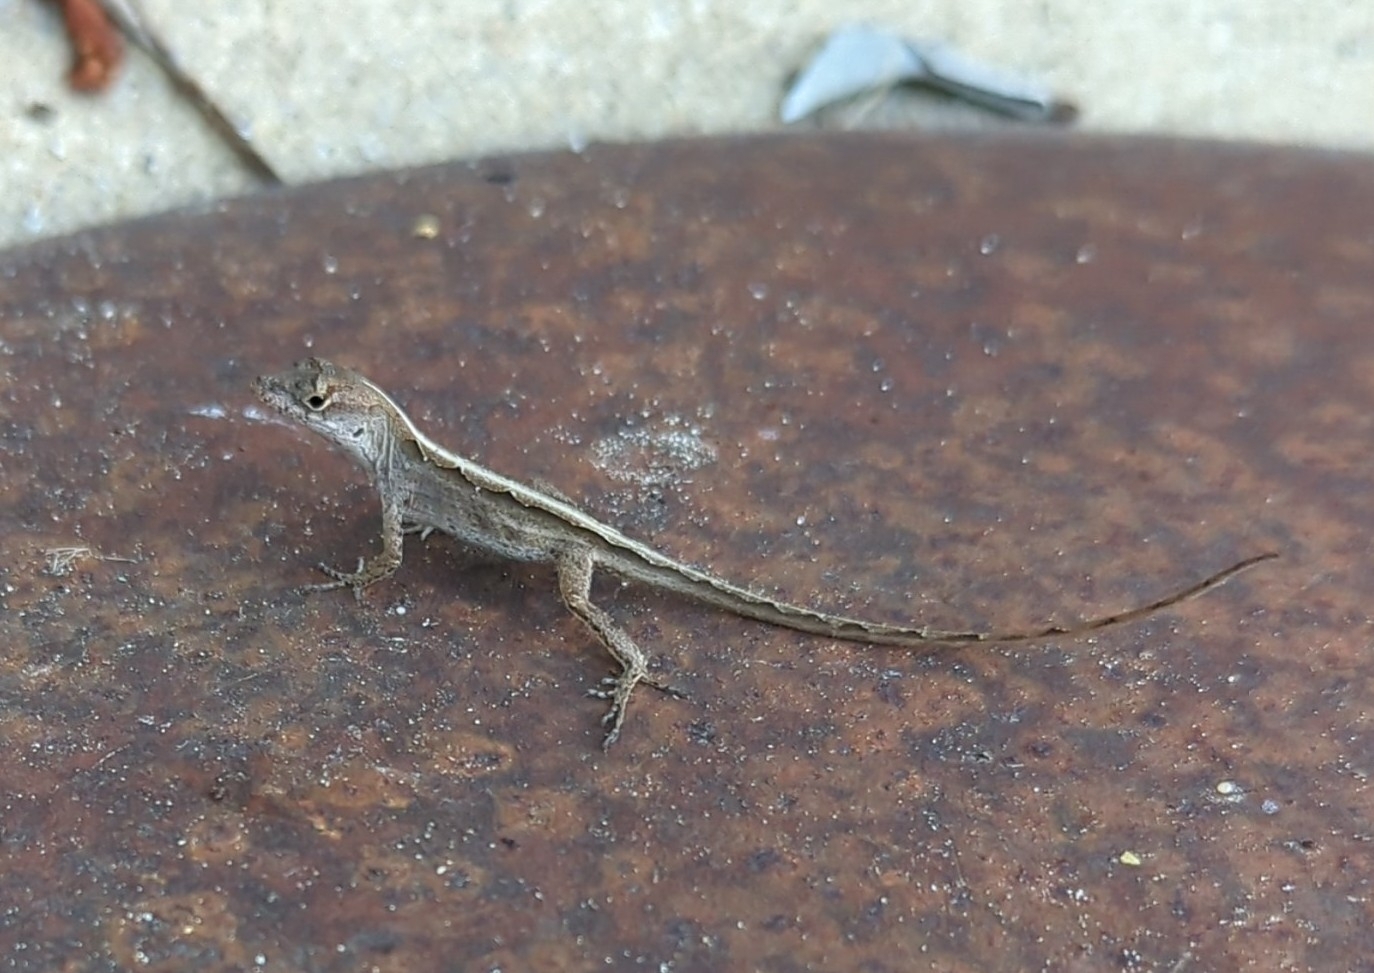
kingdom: Animalia
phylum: Chordata
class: Squamata
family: Dactyloidae
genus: Anolis
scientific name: Anolis sagrei
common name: Brown anole
